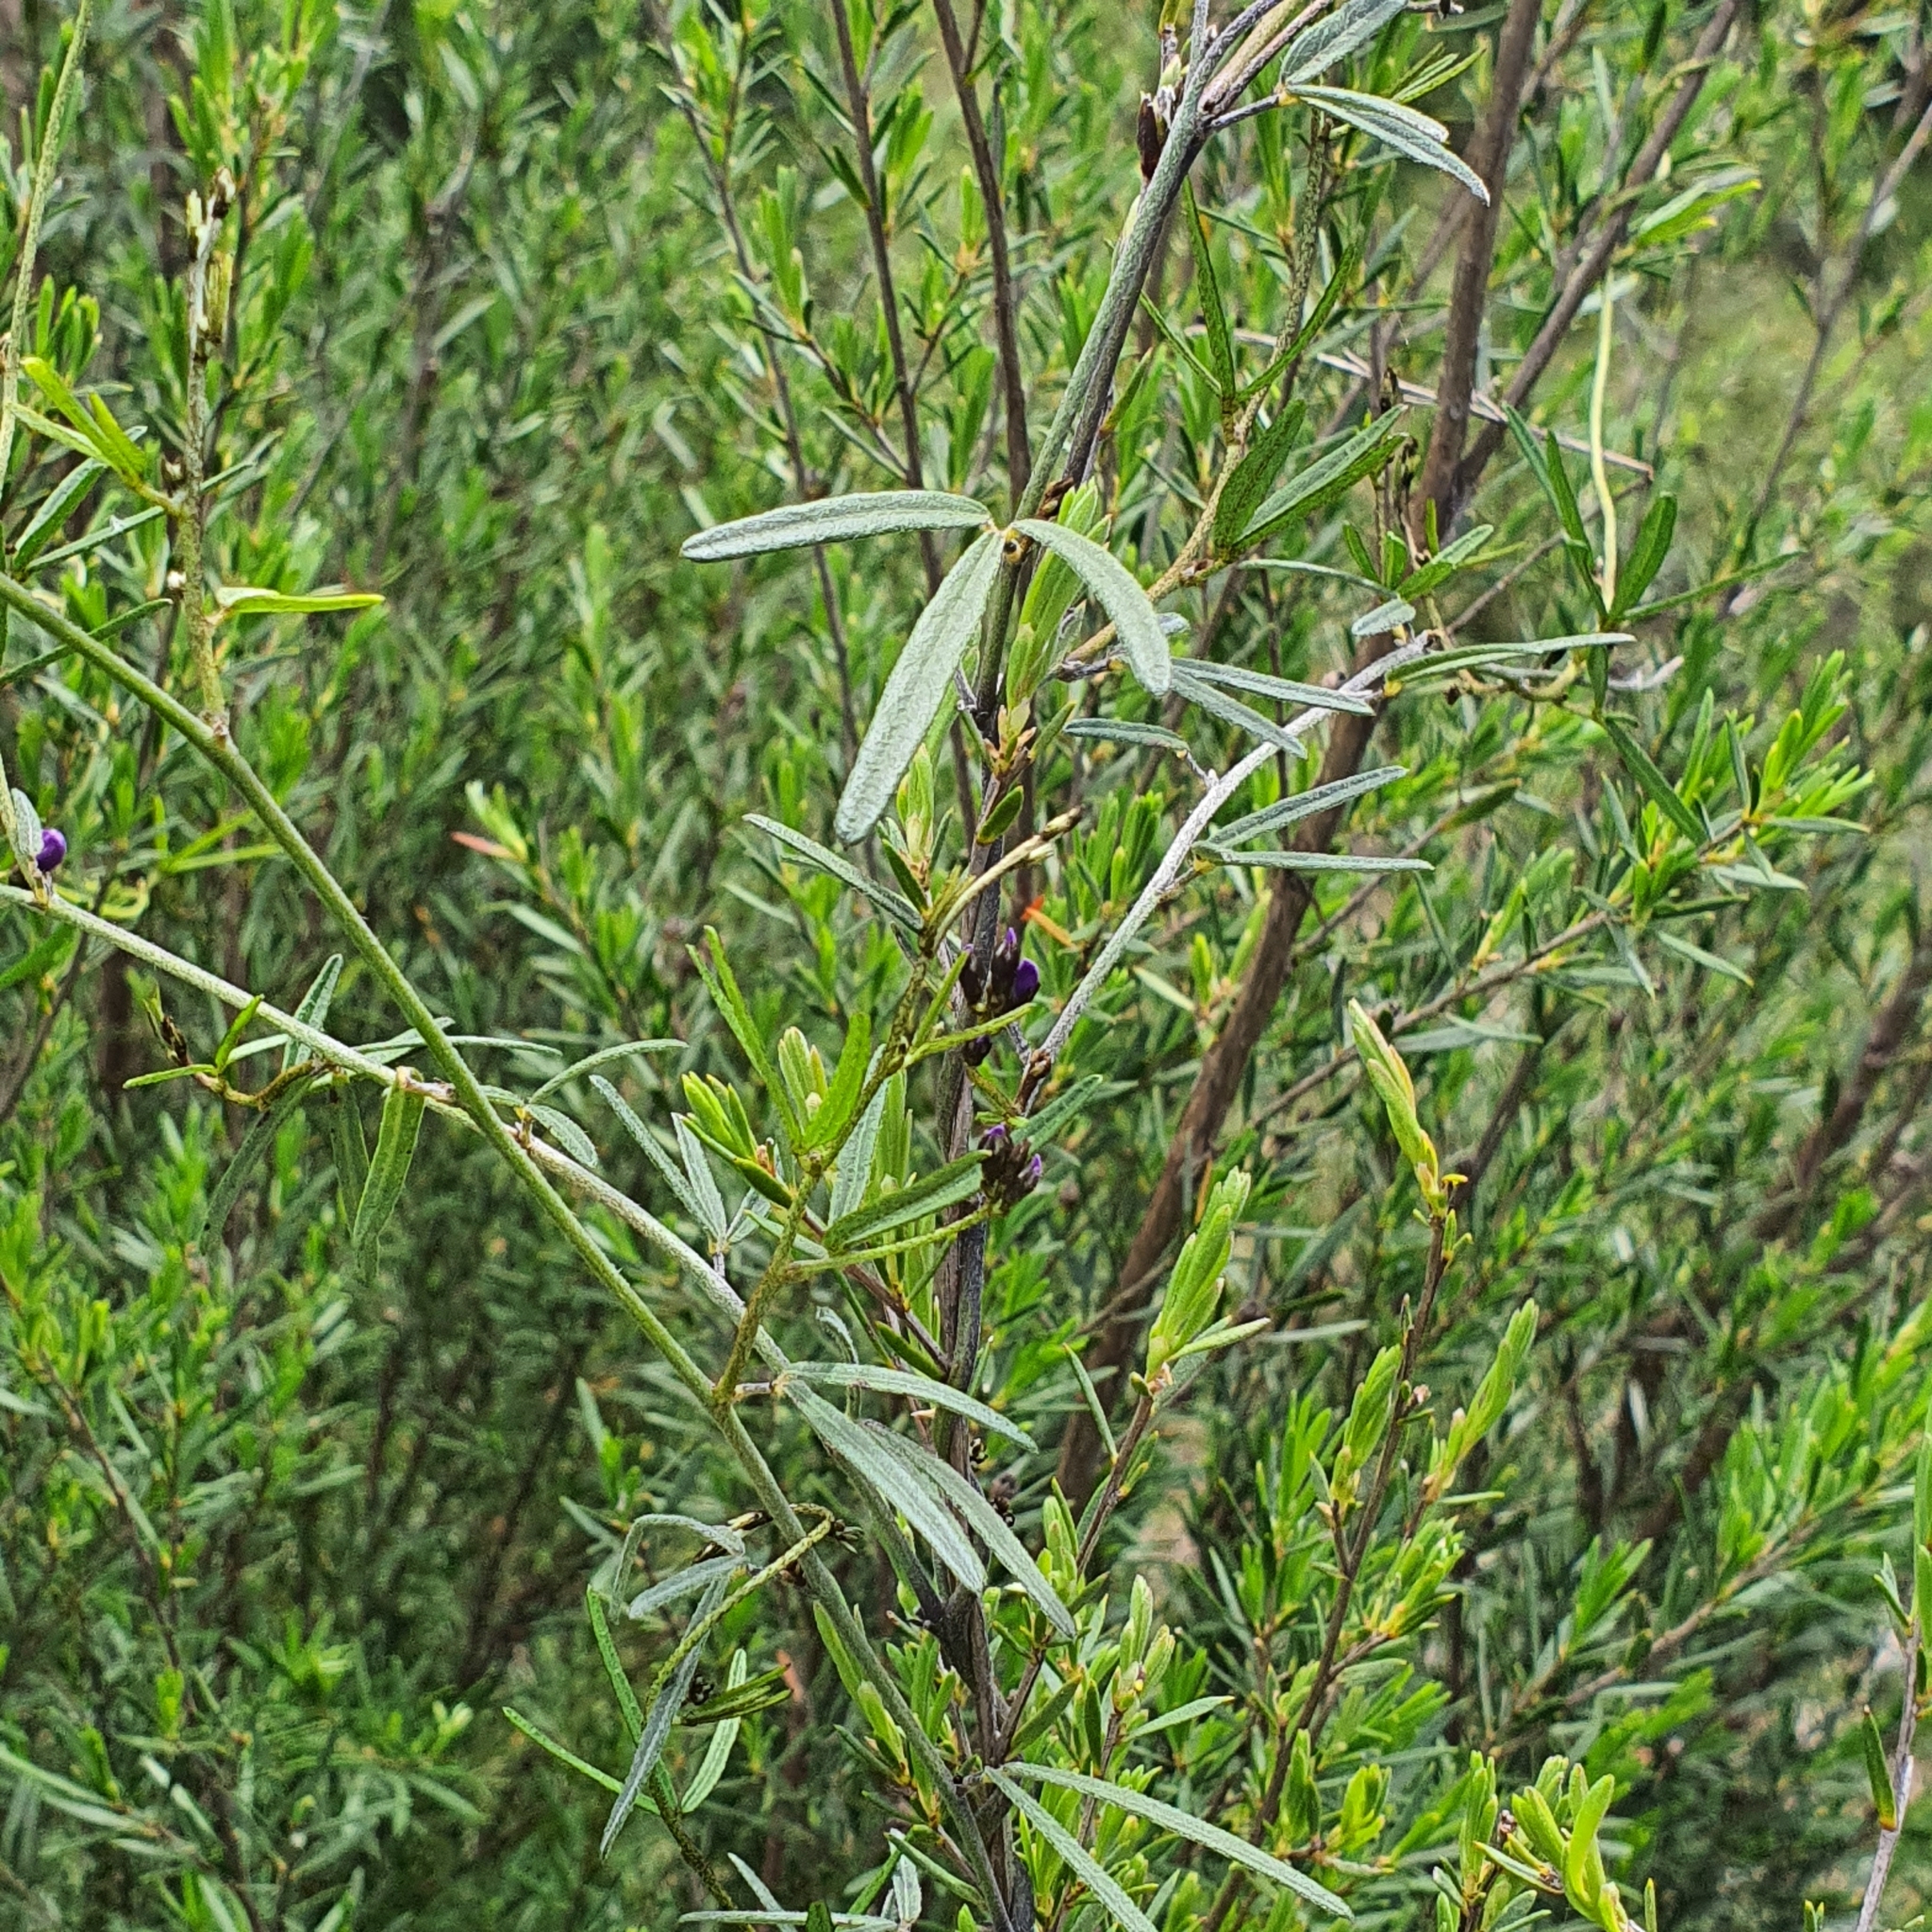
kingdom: Plantae
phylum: Tracheophyta
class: Magnoliopsida
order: Fabales
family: Fabaceae
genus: Glycine
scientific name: Glycine clandestina
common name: Twining glycine
